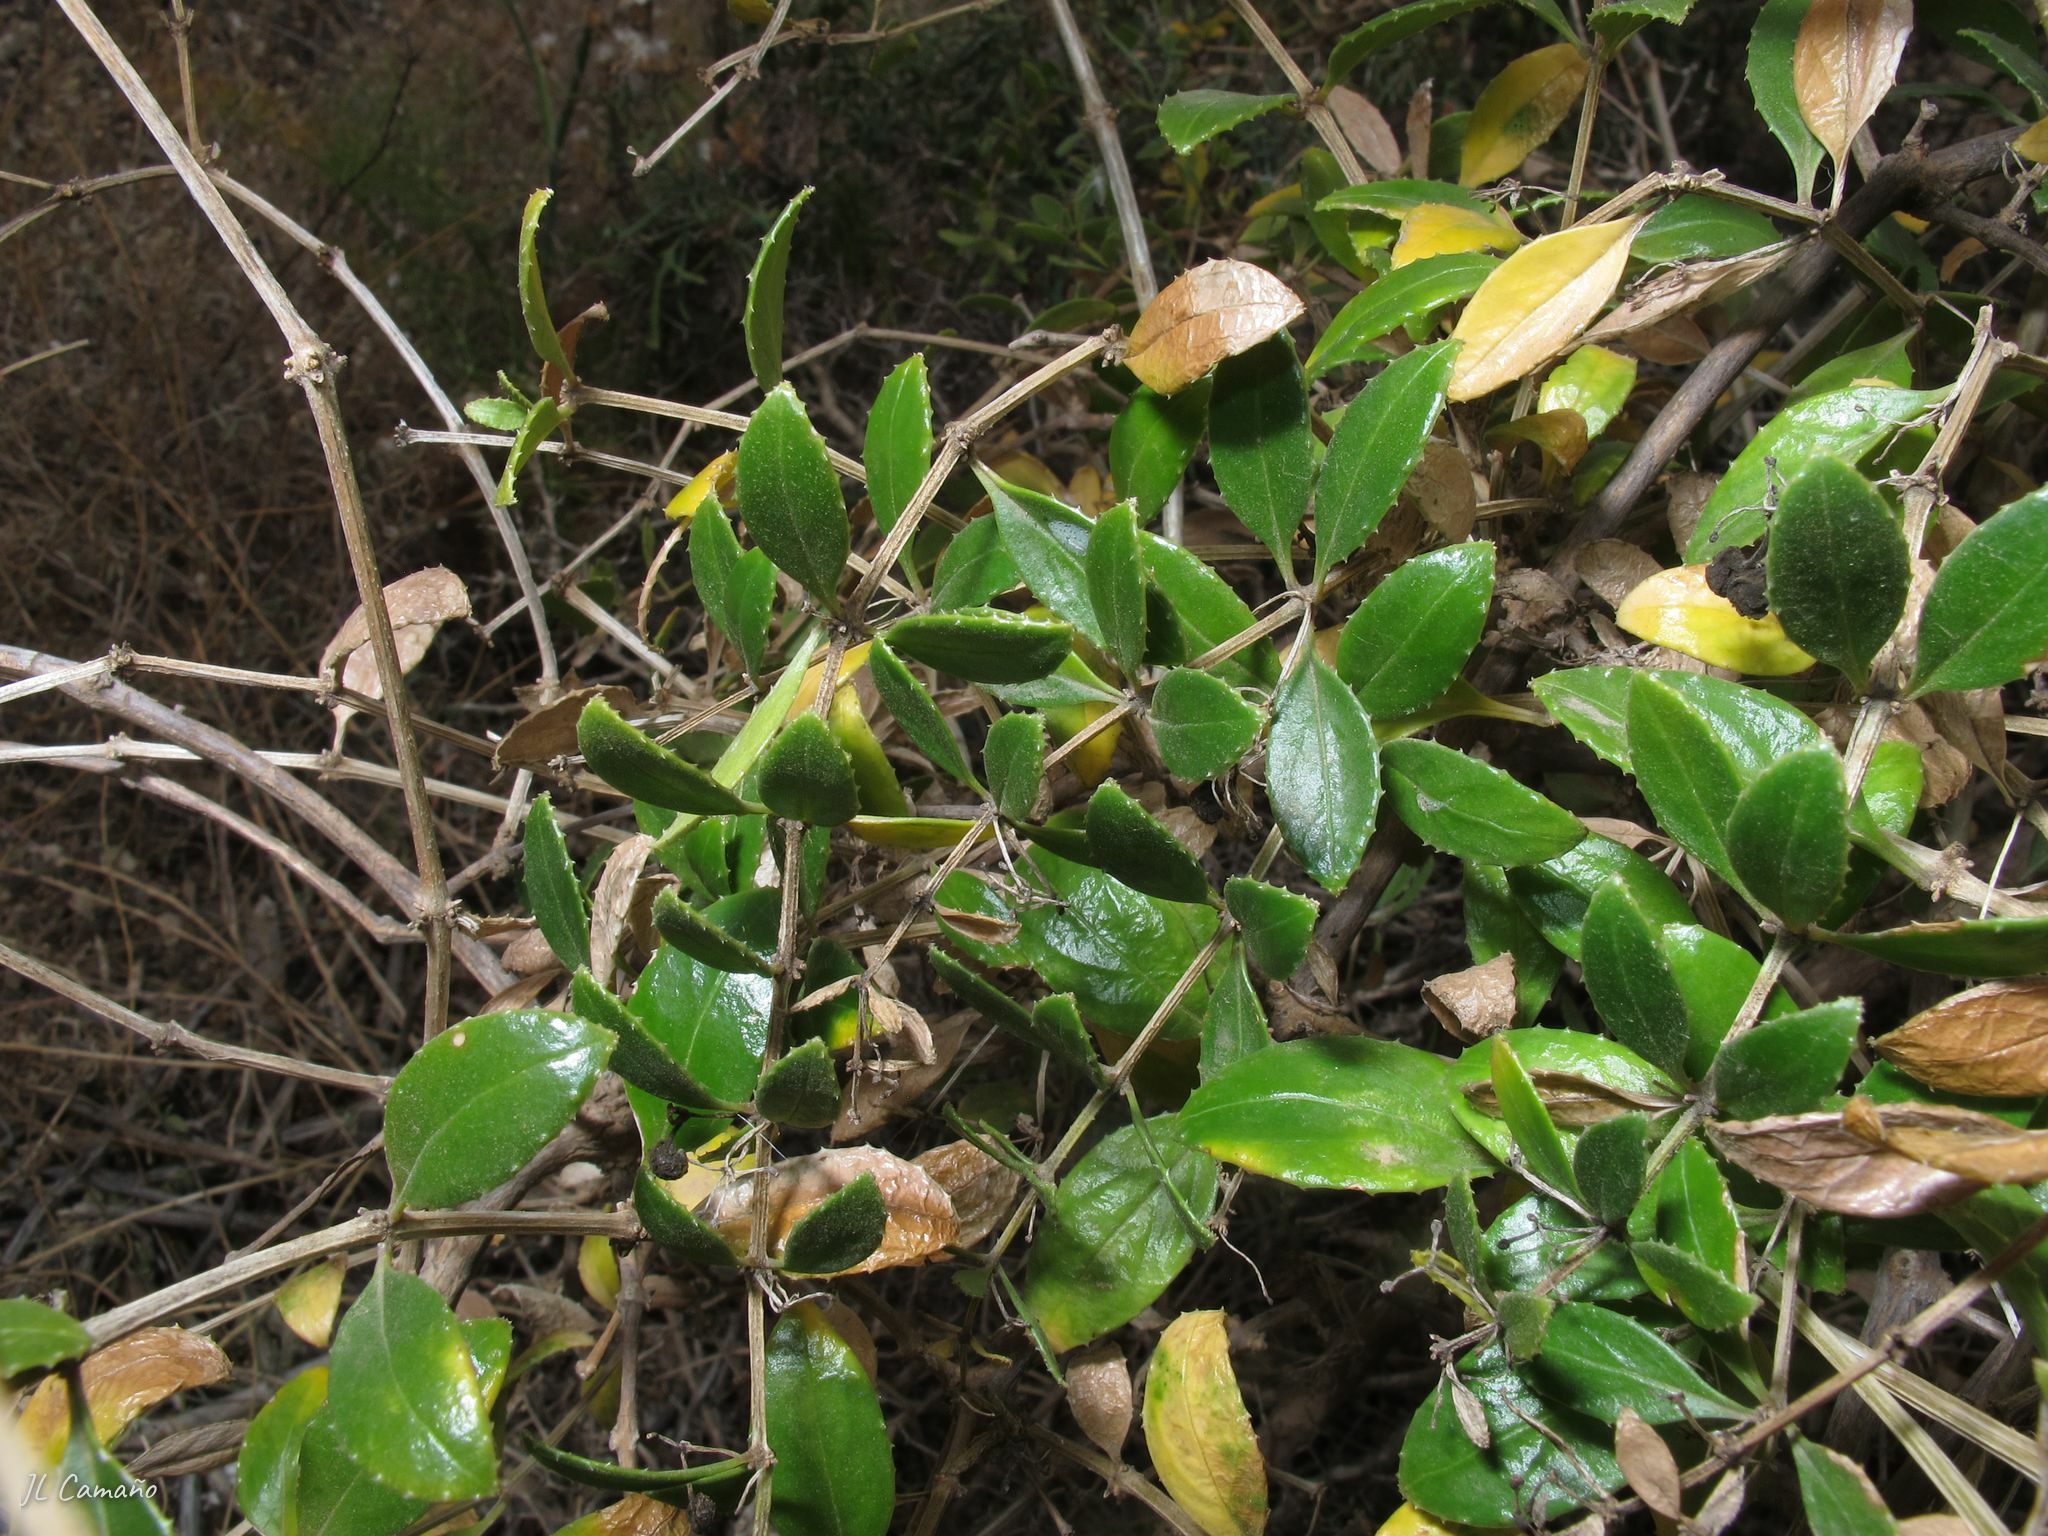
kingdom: Plantae
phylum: Tracheophyta
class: Magnoliopsida
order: Gentianales
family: Rubiaceae
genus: Rubia
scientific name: Rubia fruticosa
